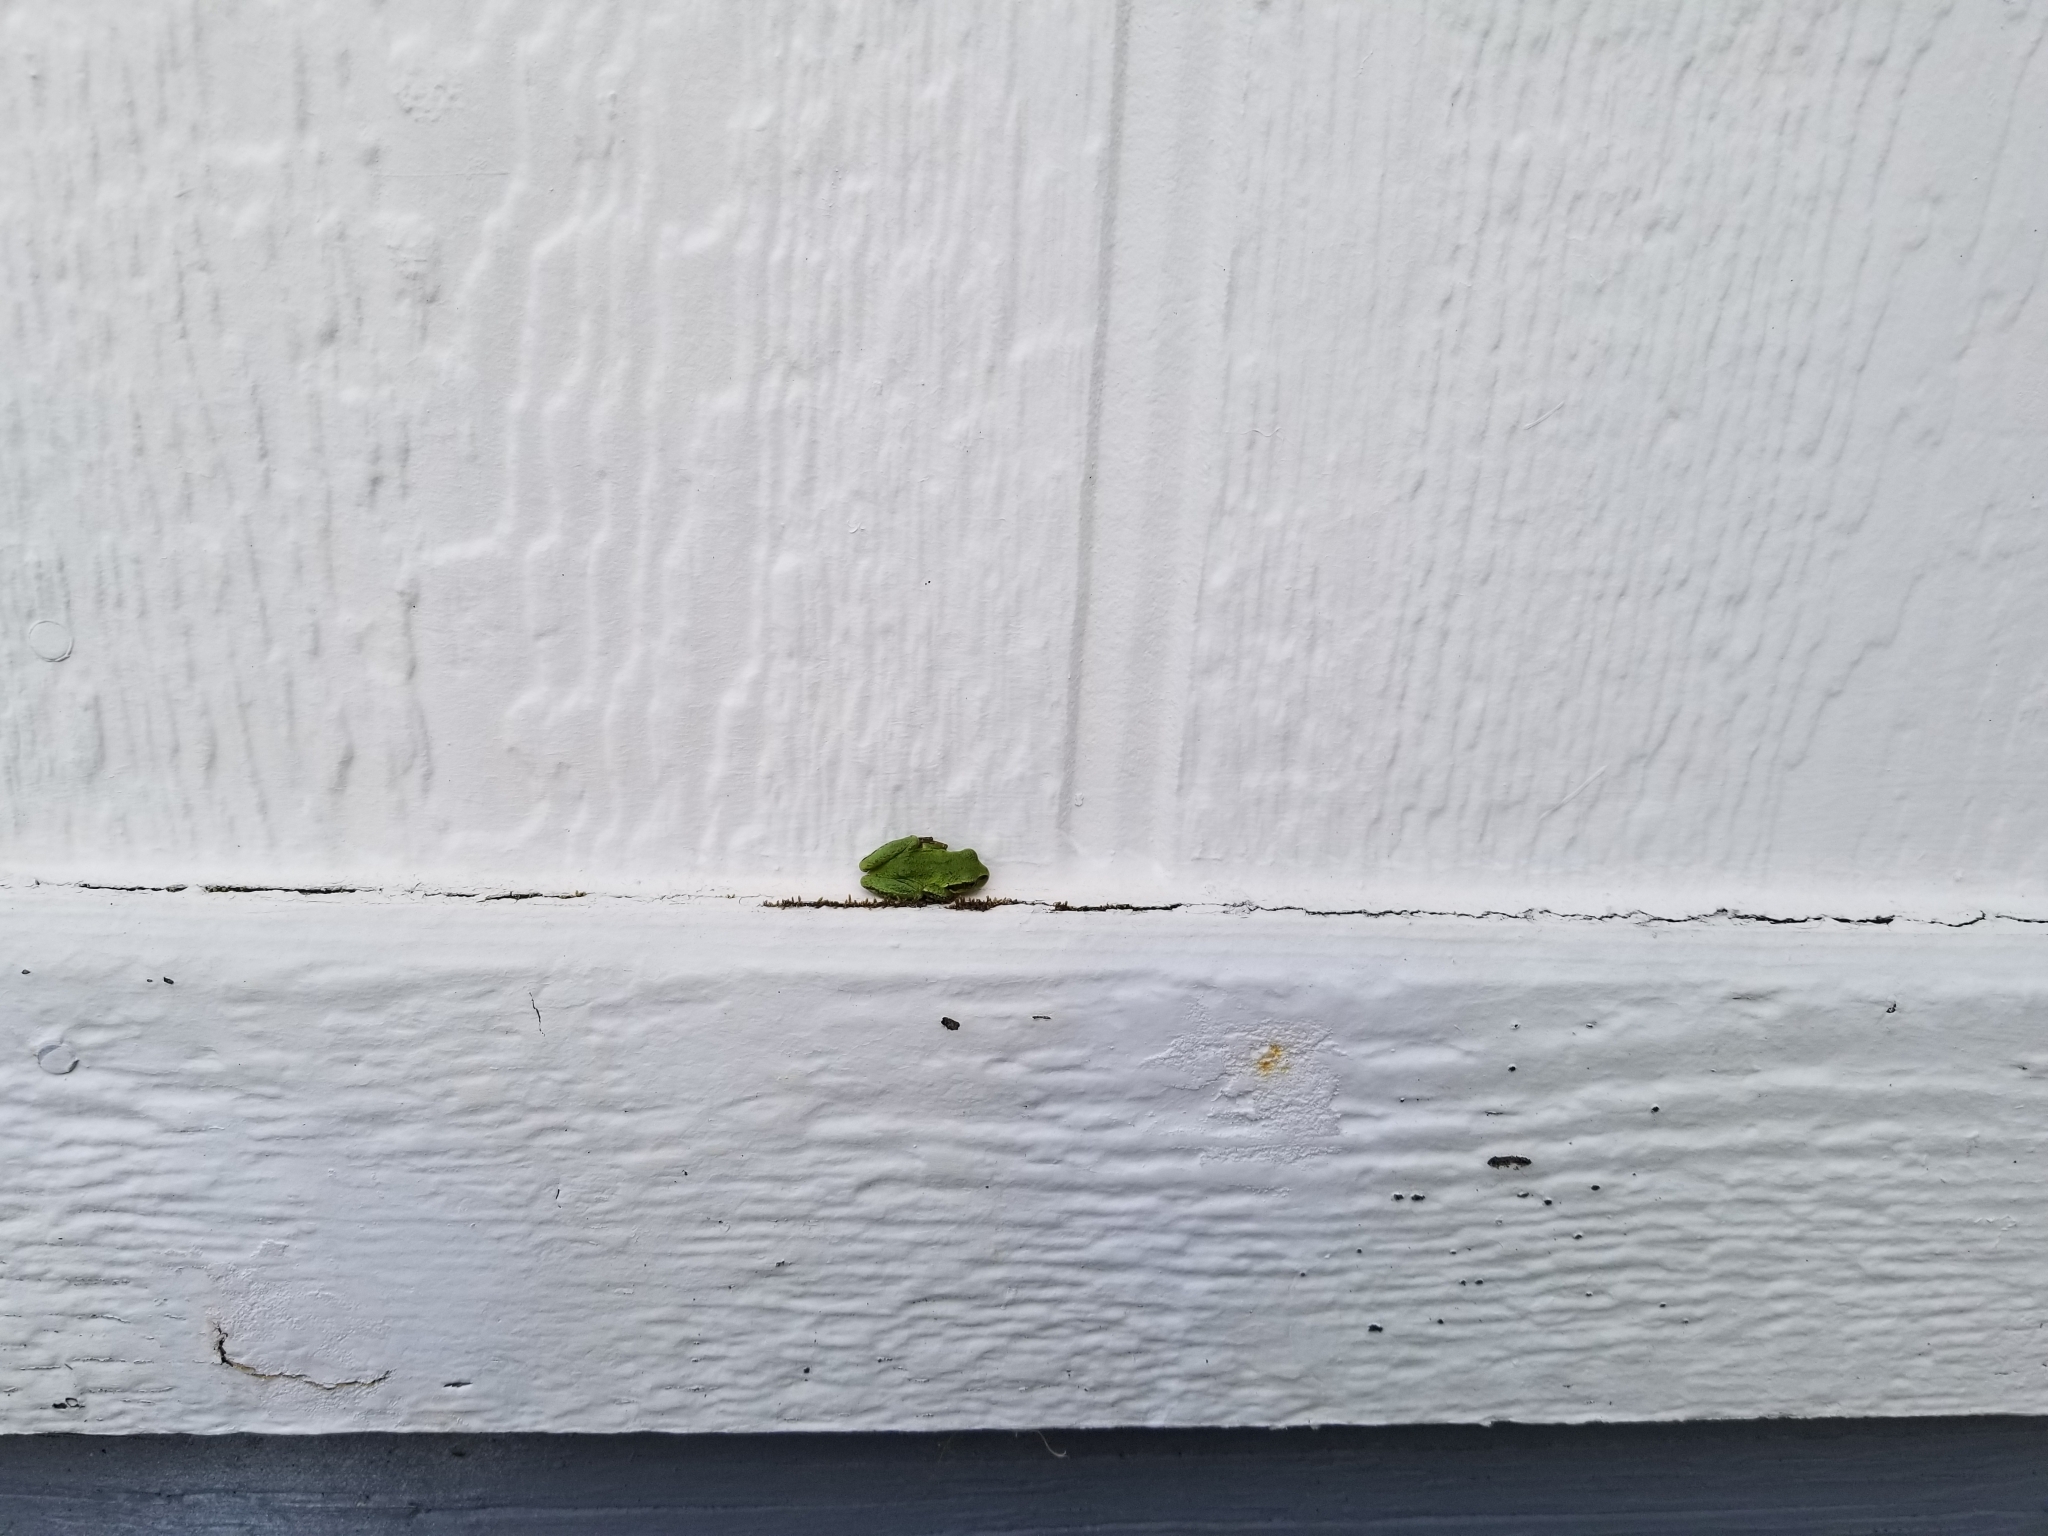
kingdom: Animalia
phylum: Chordata
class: Amphibia
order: Anura
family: Hylidae
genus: Pseudacris
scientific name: Pseudacris regilla
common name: Pacific chorus frog
